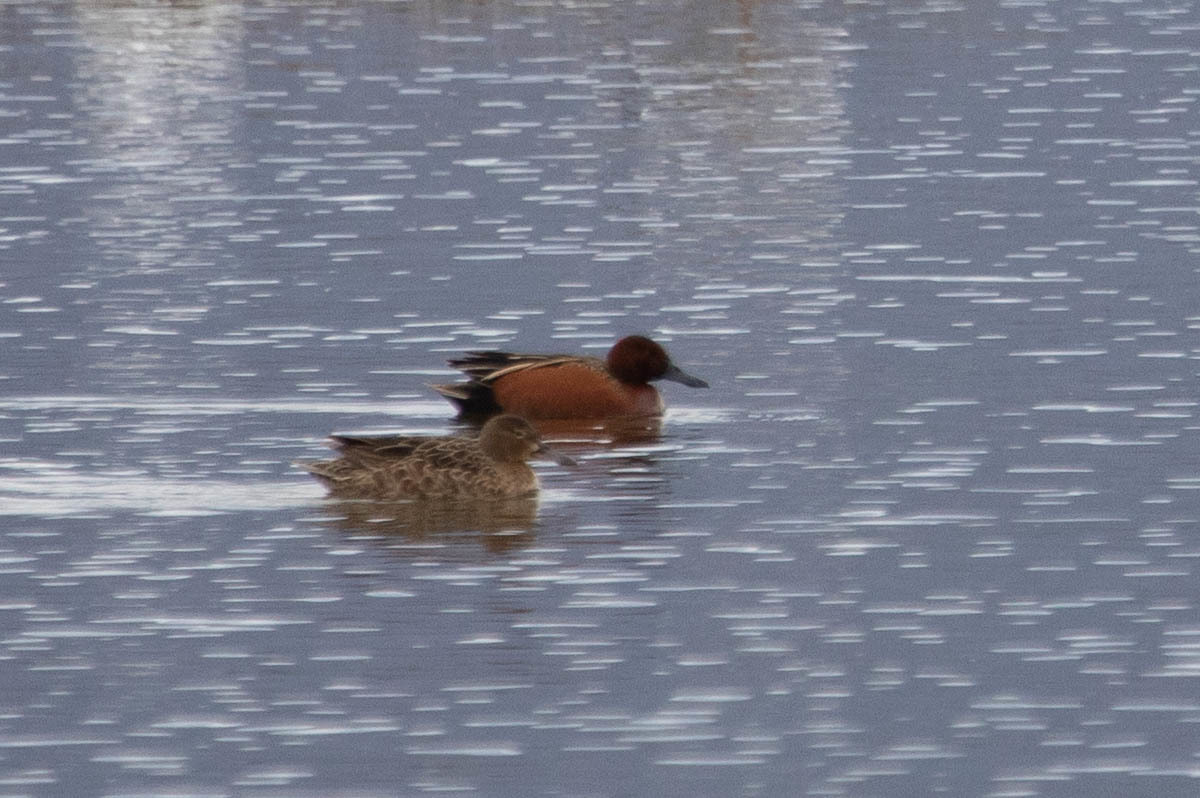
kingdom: Animalia
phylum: Chordata
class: Aves
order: Anseriformes
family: Anatidae
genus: Spatula
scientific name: Spatula cyanoptera
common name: Cinnamon teal
